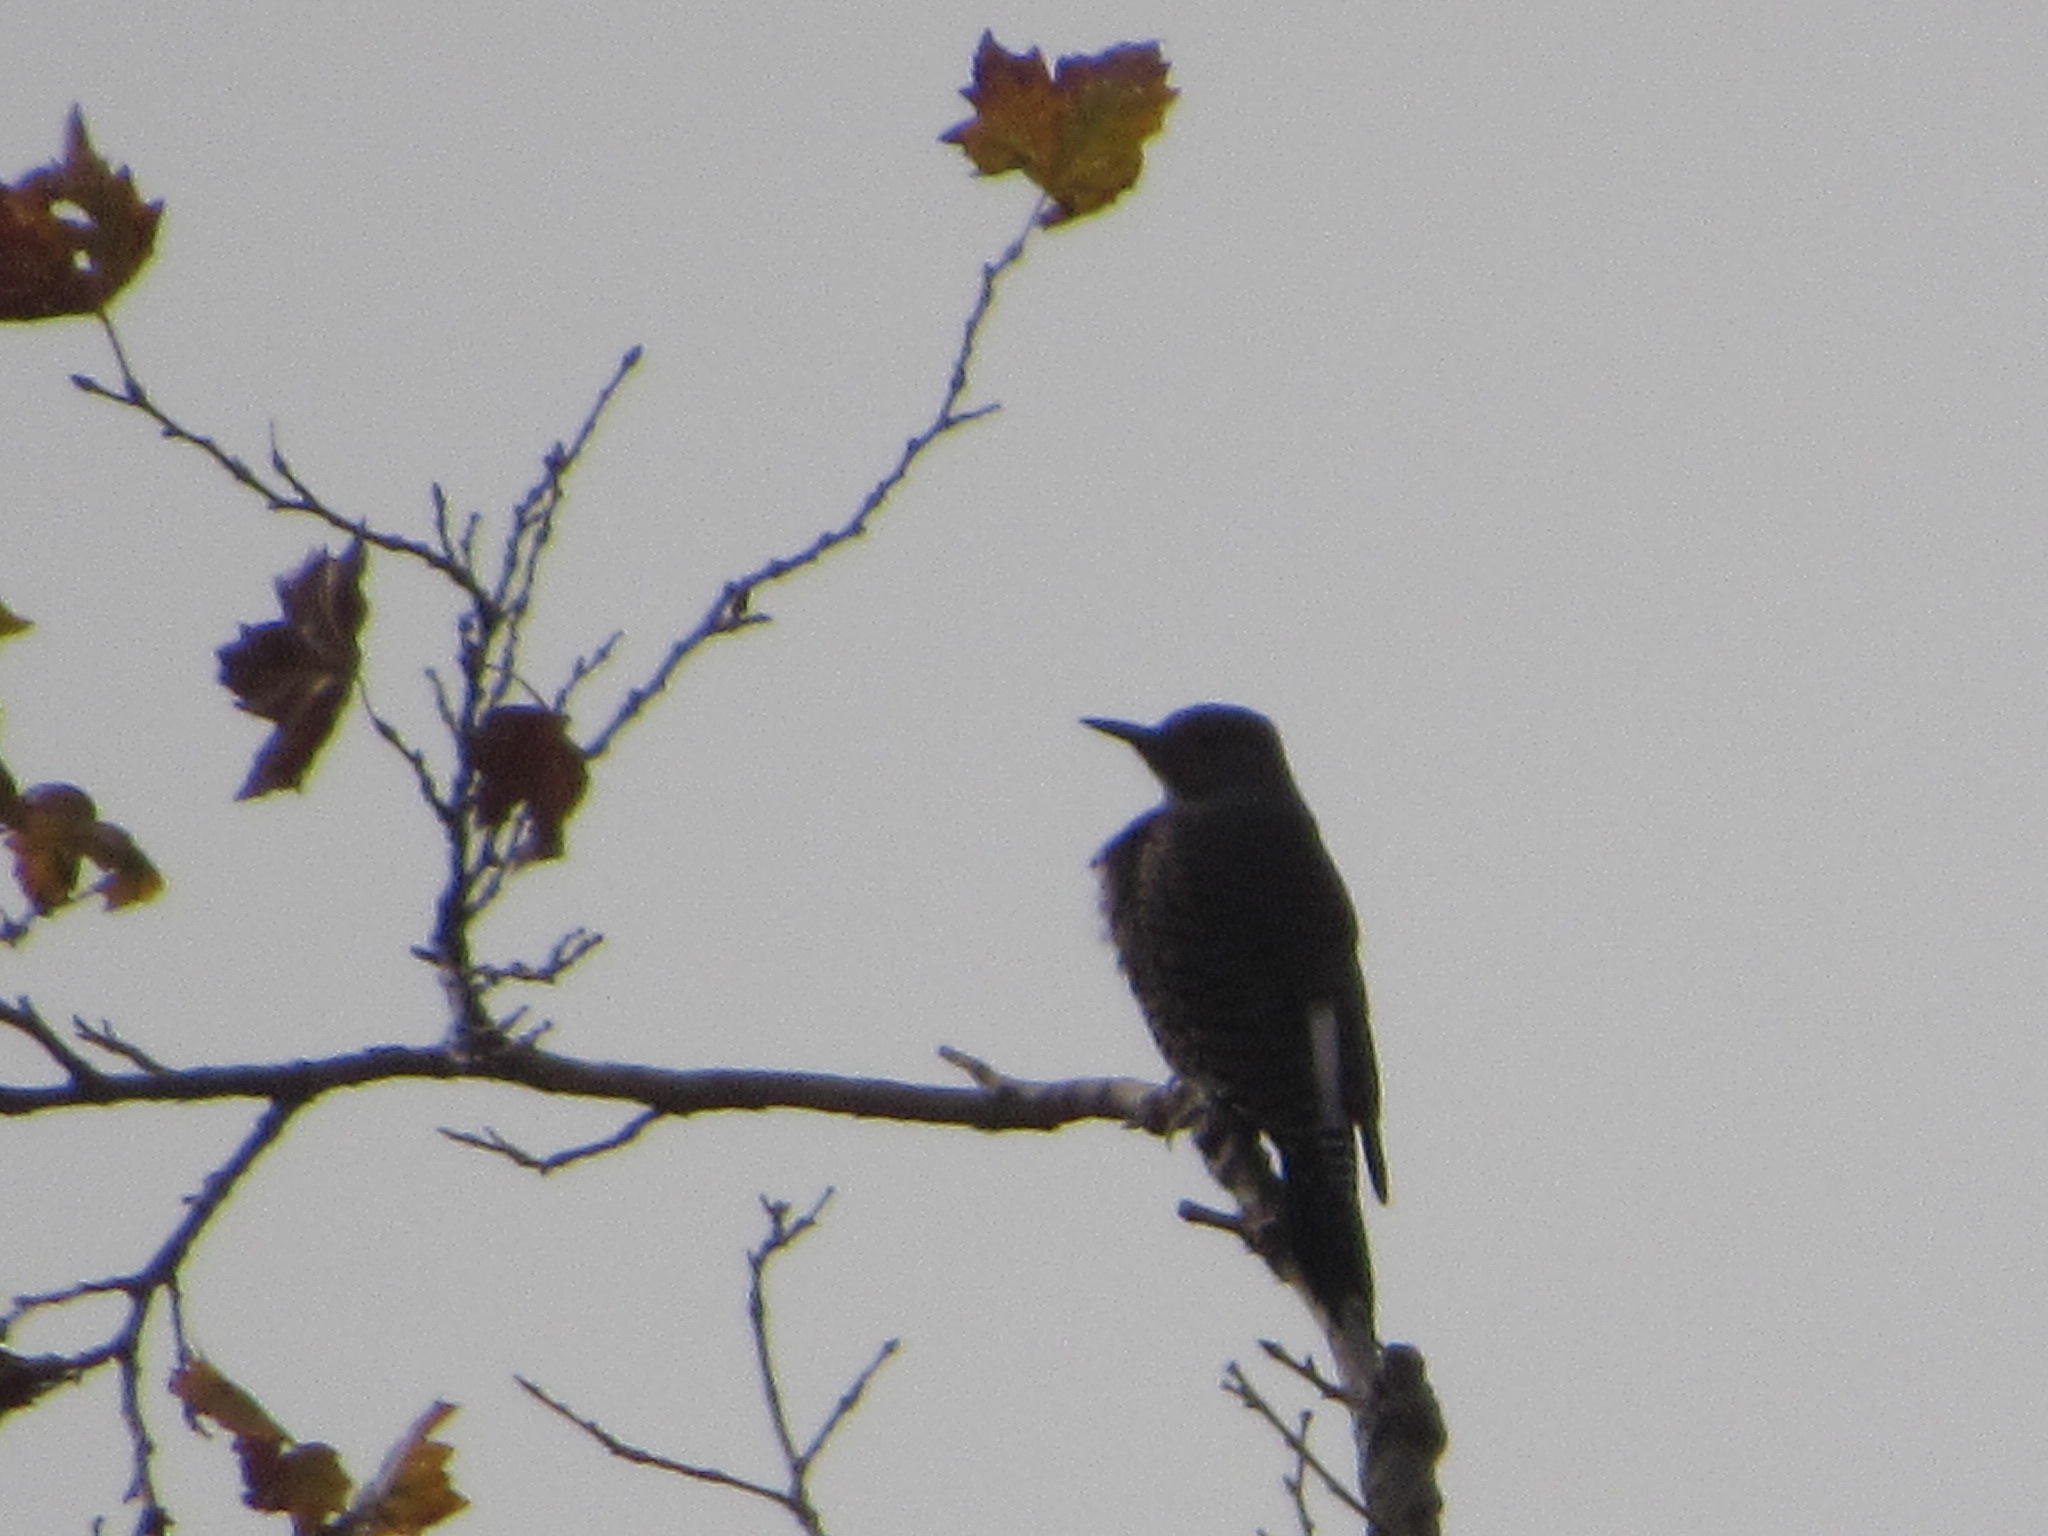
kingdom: Animalia
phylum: Chordata
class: Aves
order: Piciformes
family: Picidae
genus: Colaptes
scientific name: Colaptes auratus
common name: Northern flicker
